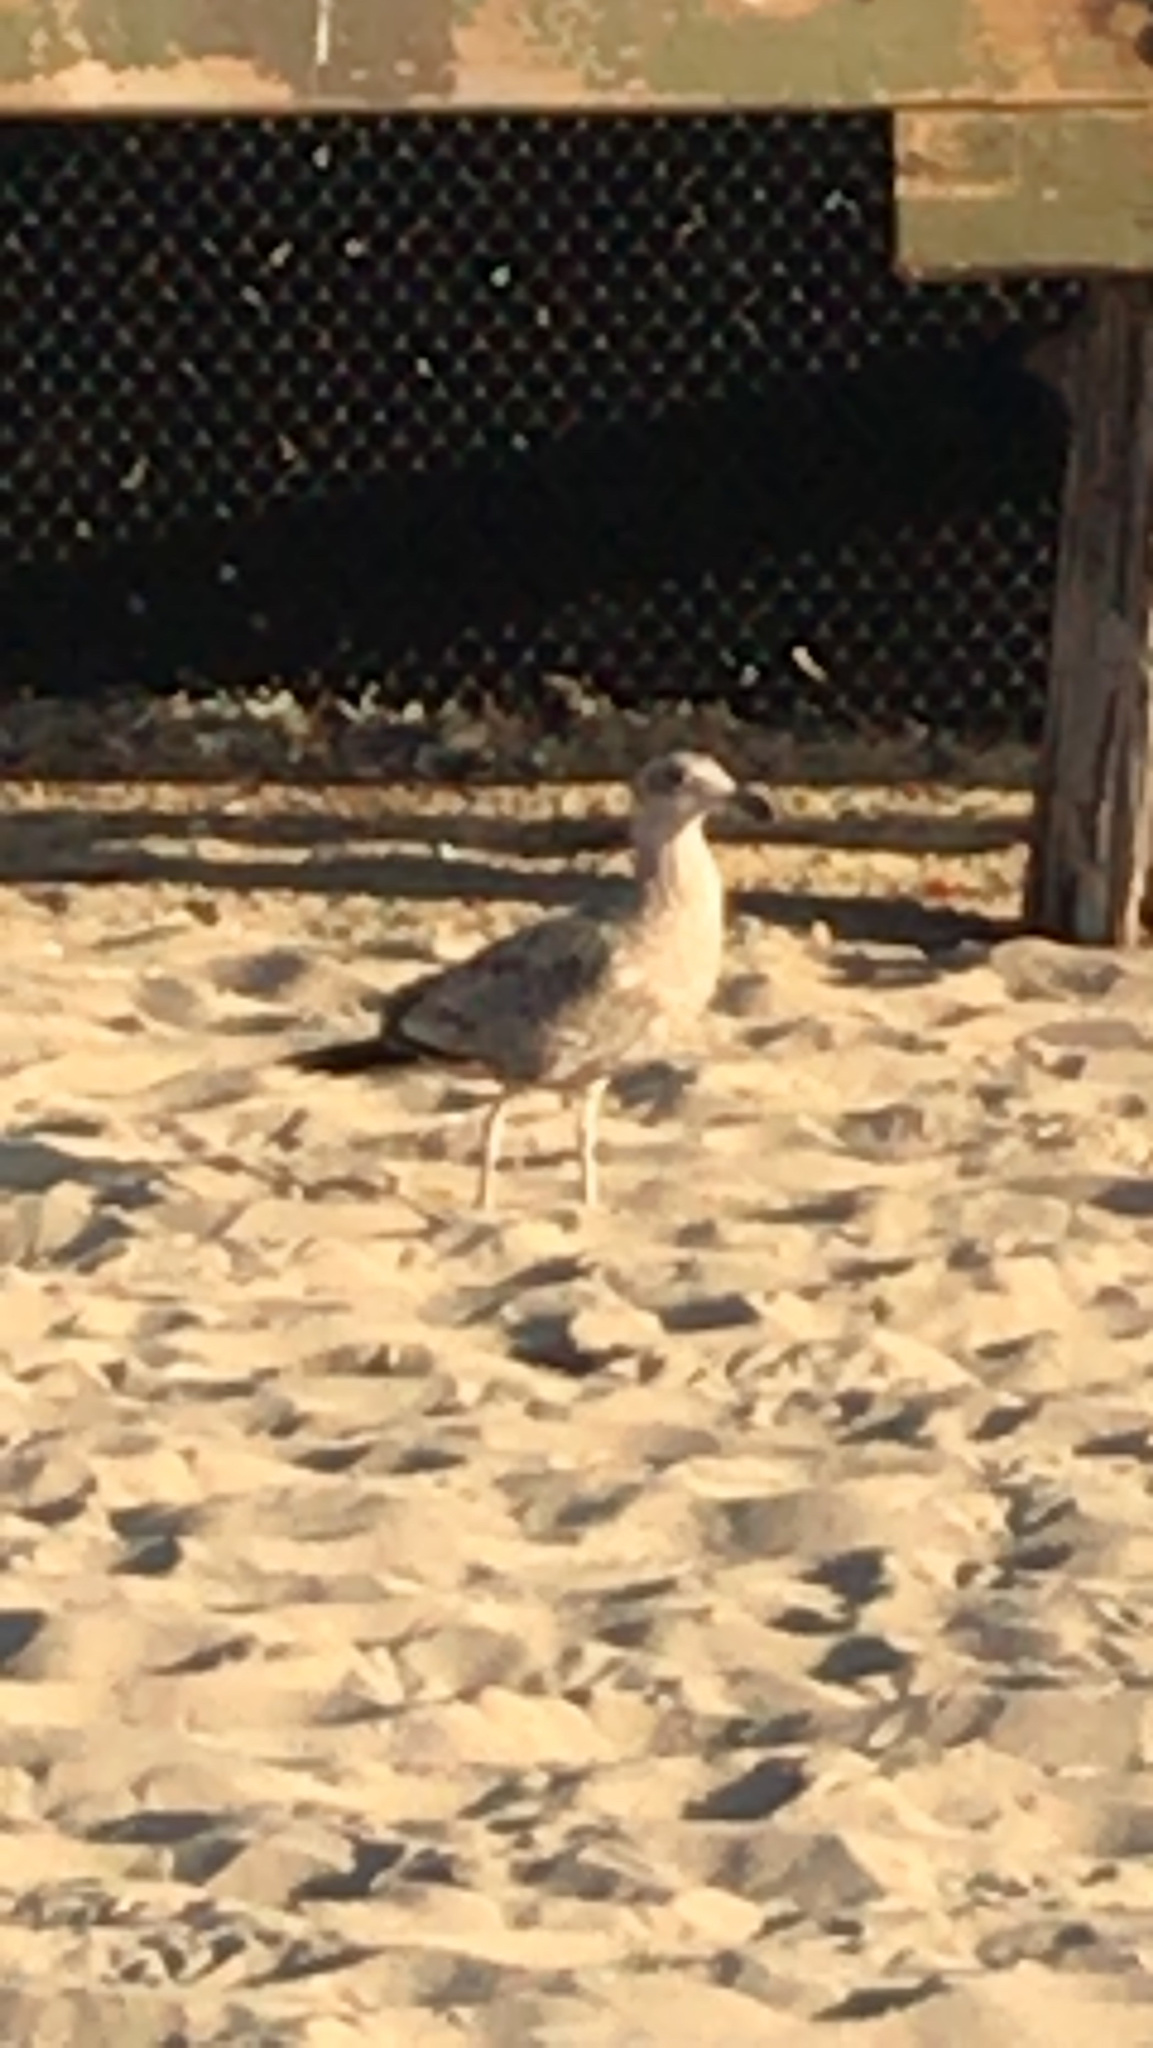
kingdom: Animalia
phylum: Chordata
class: Aves
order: Charadriiformes
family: Laridae
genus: Larus
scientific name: Larus occidentalis
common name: Western gull
